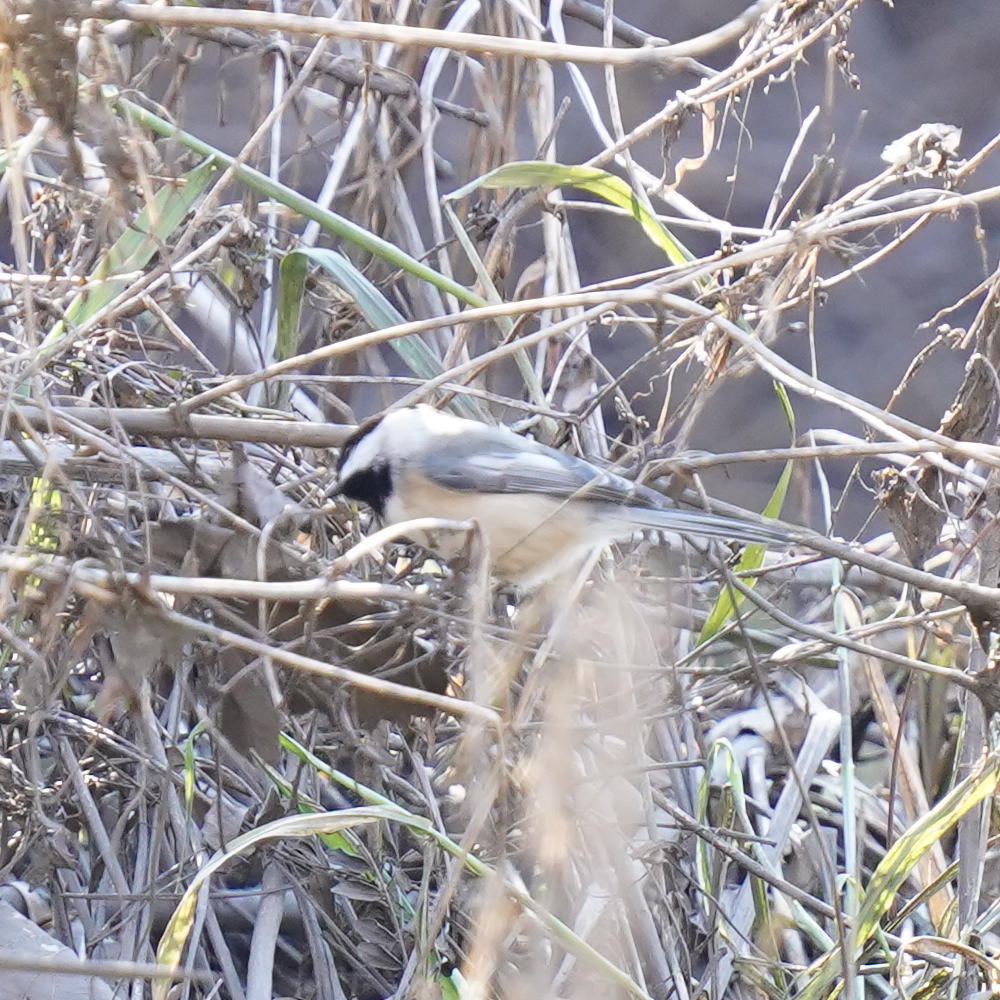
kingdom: Animalia
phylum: Chordata
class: Aves
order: Passeriformes
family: Paridae
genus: Poecile
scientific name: Poecile atricapillus
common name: Black-capped chickadee
